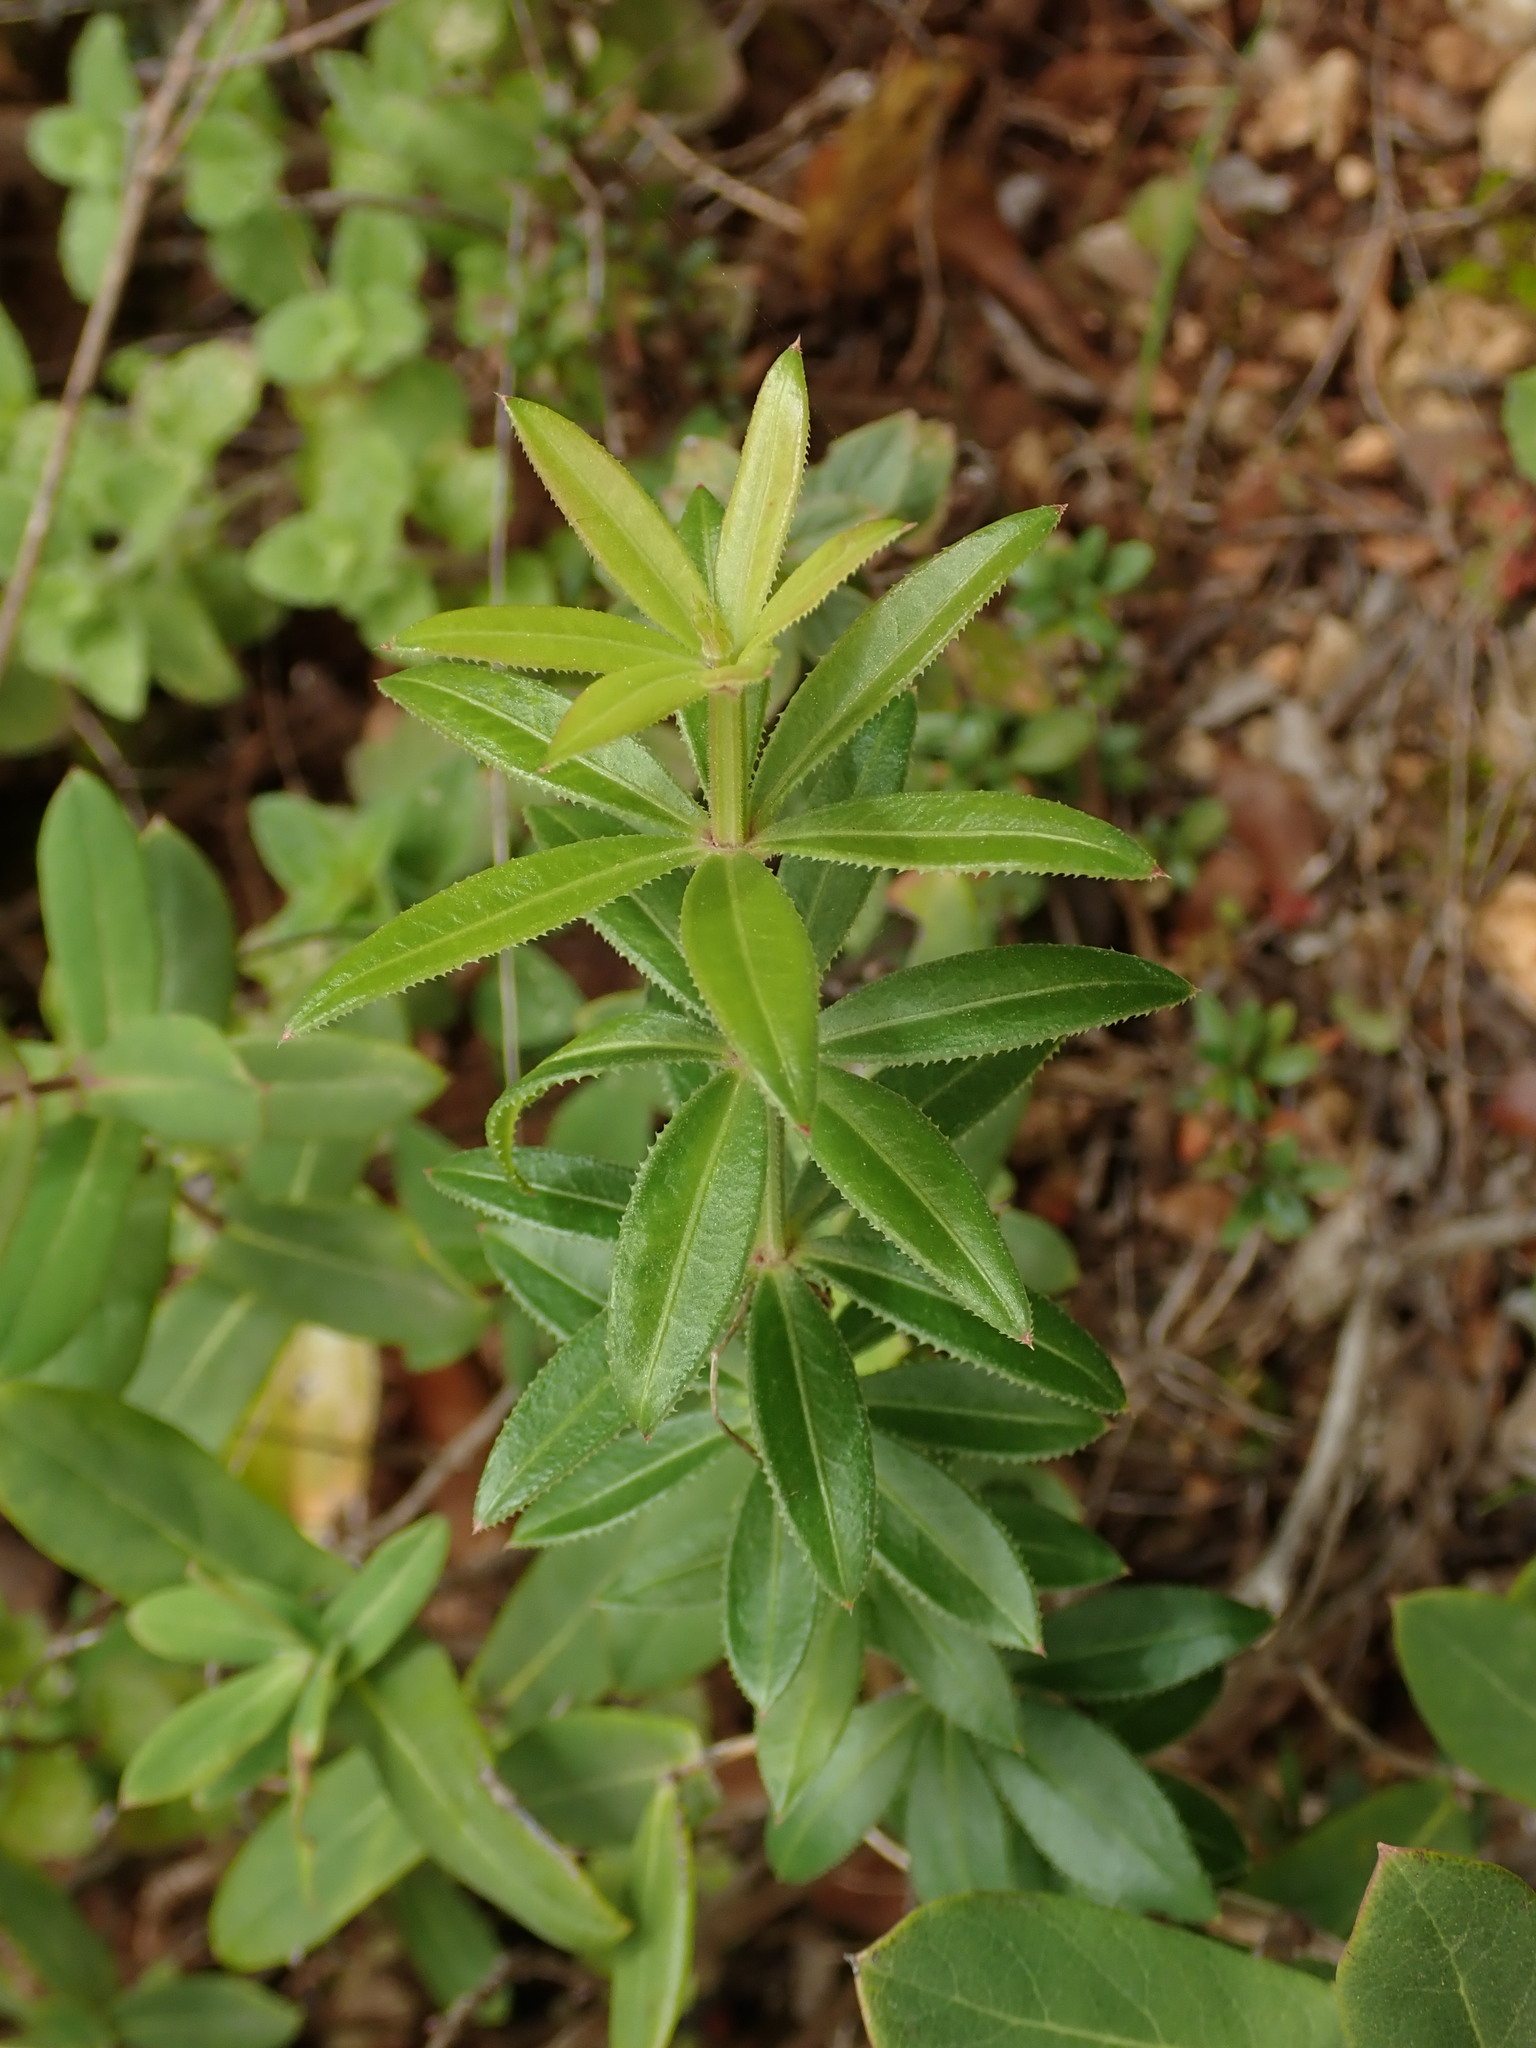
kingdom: Plantae
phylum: Tracheophyta
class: Magnoliopsida
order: Gentianales
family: Rubiaceae
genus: Rubia
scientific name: Rubia peregrina
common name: Wild madder
